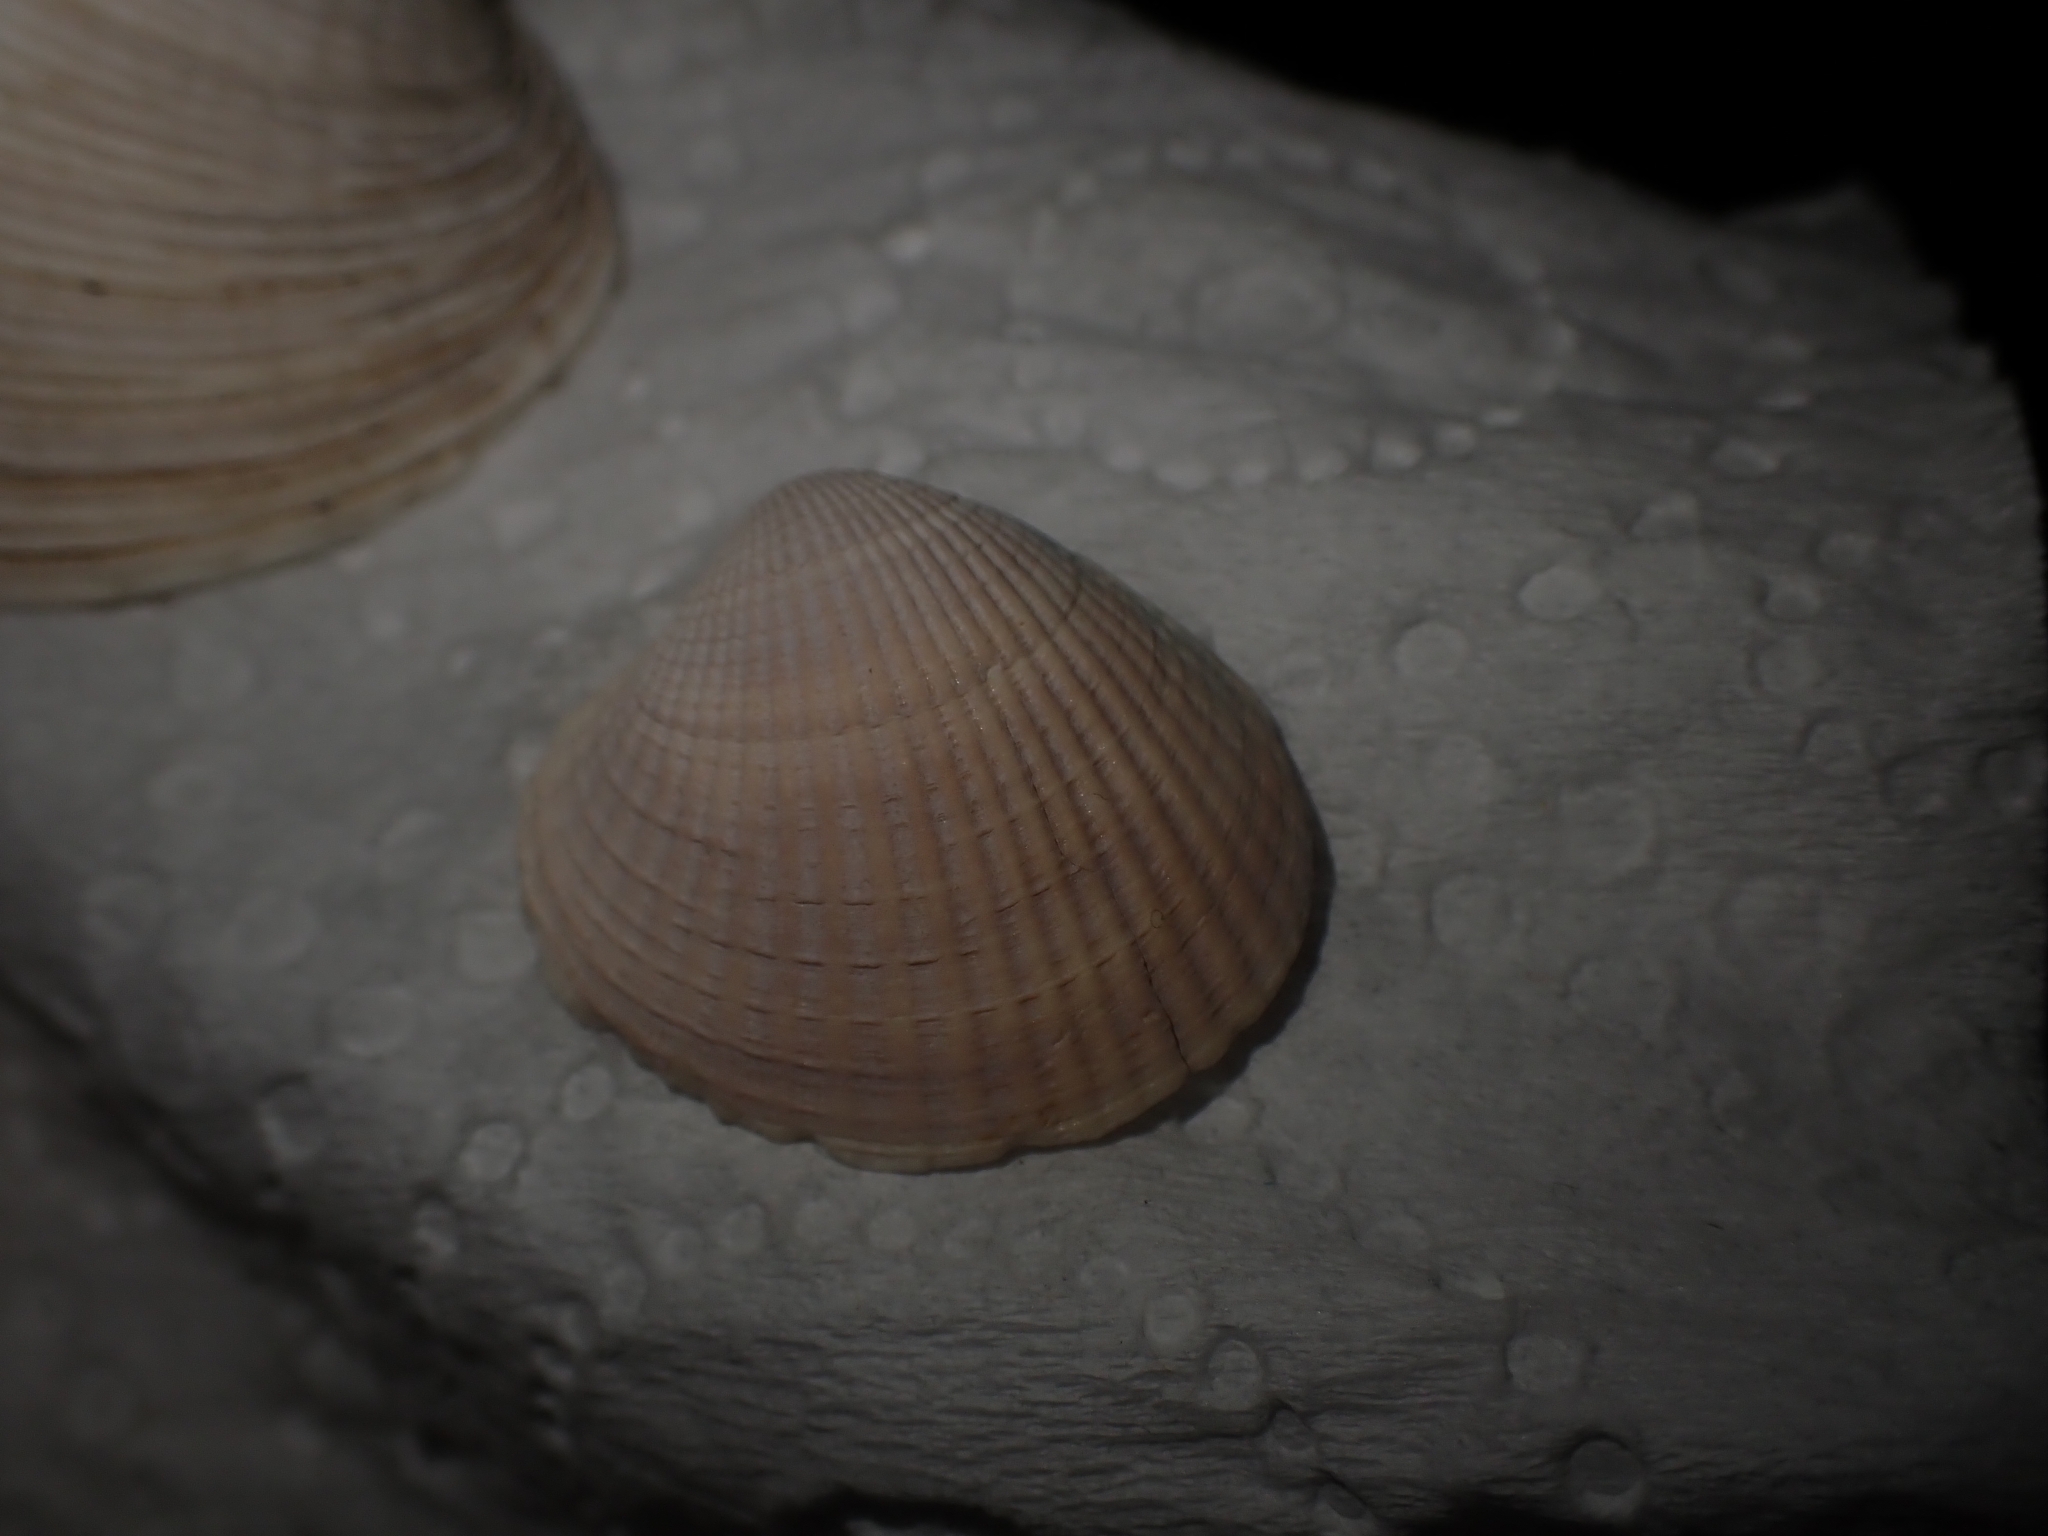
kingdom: Animalia
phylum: Mollusca
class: Bivalvia
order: Venerida
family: Veneridae
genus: Austrovenus
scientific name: Austrovenus stutchburyi
